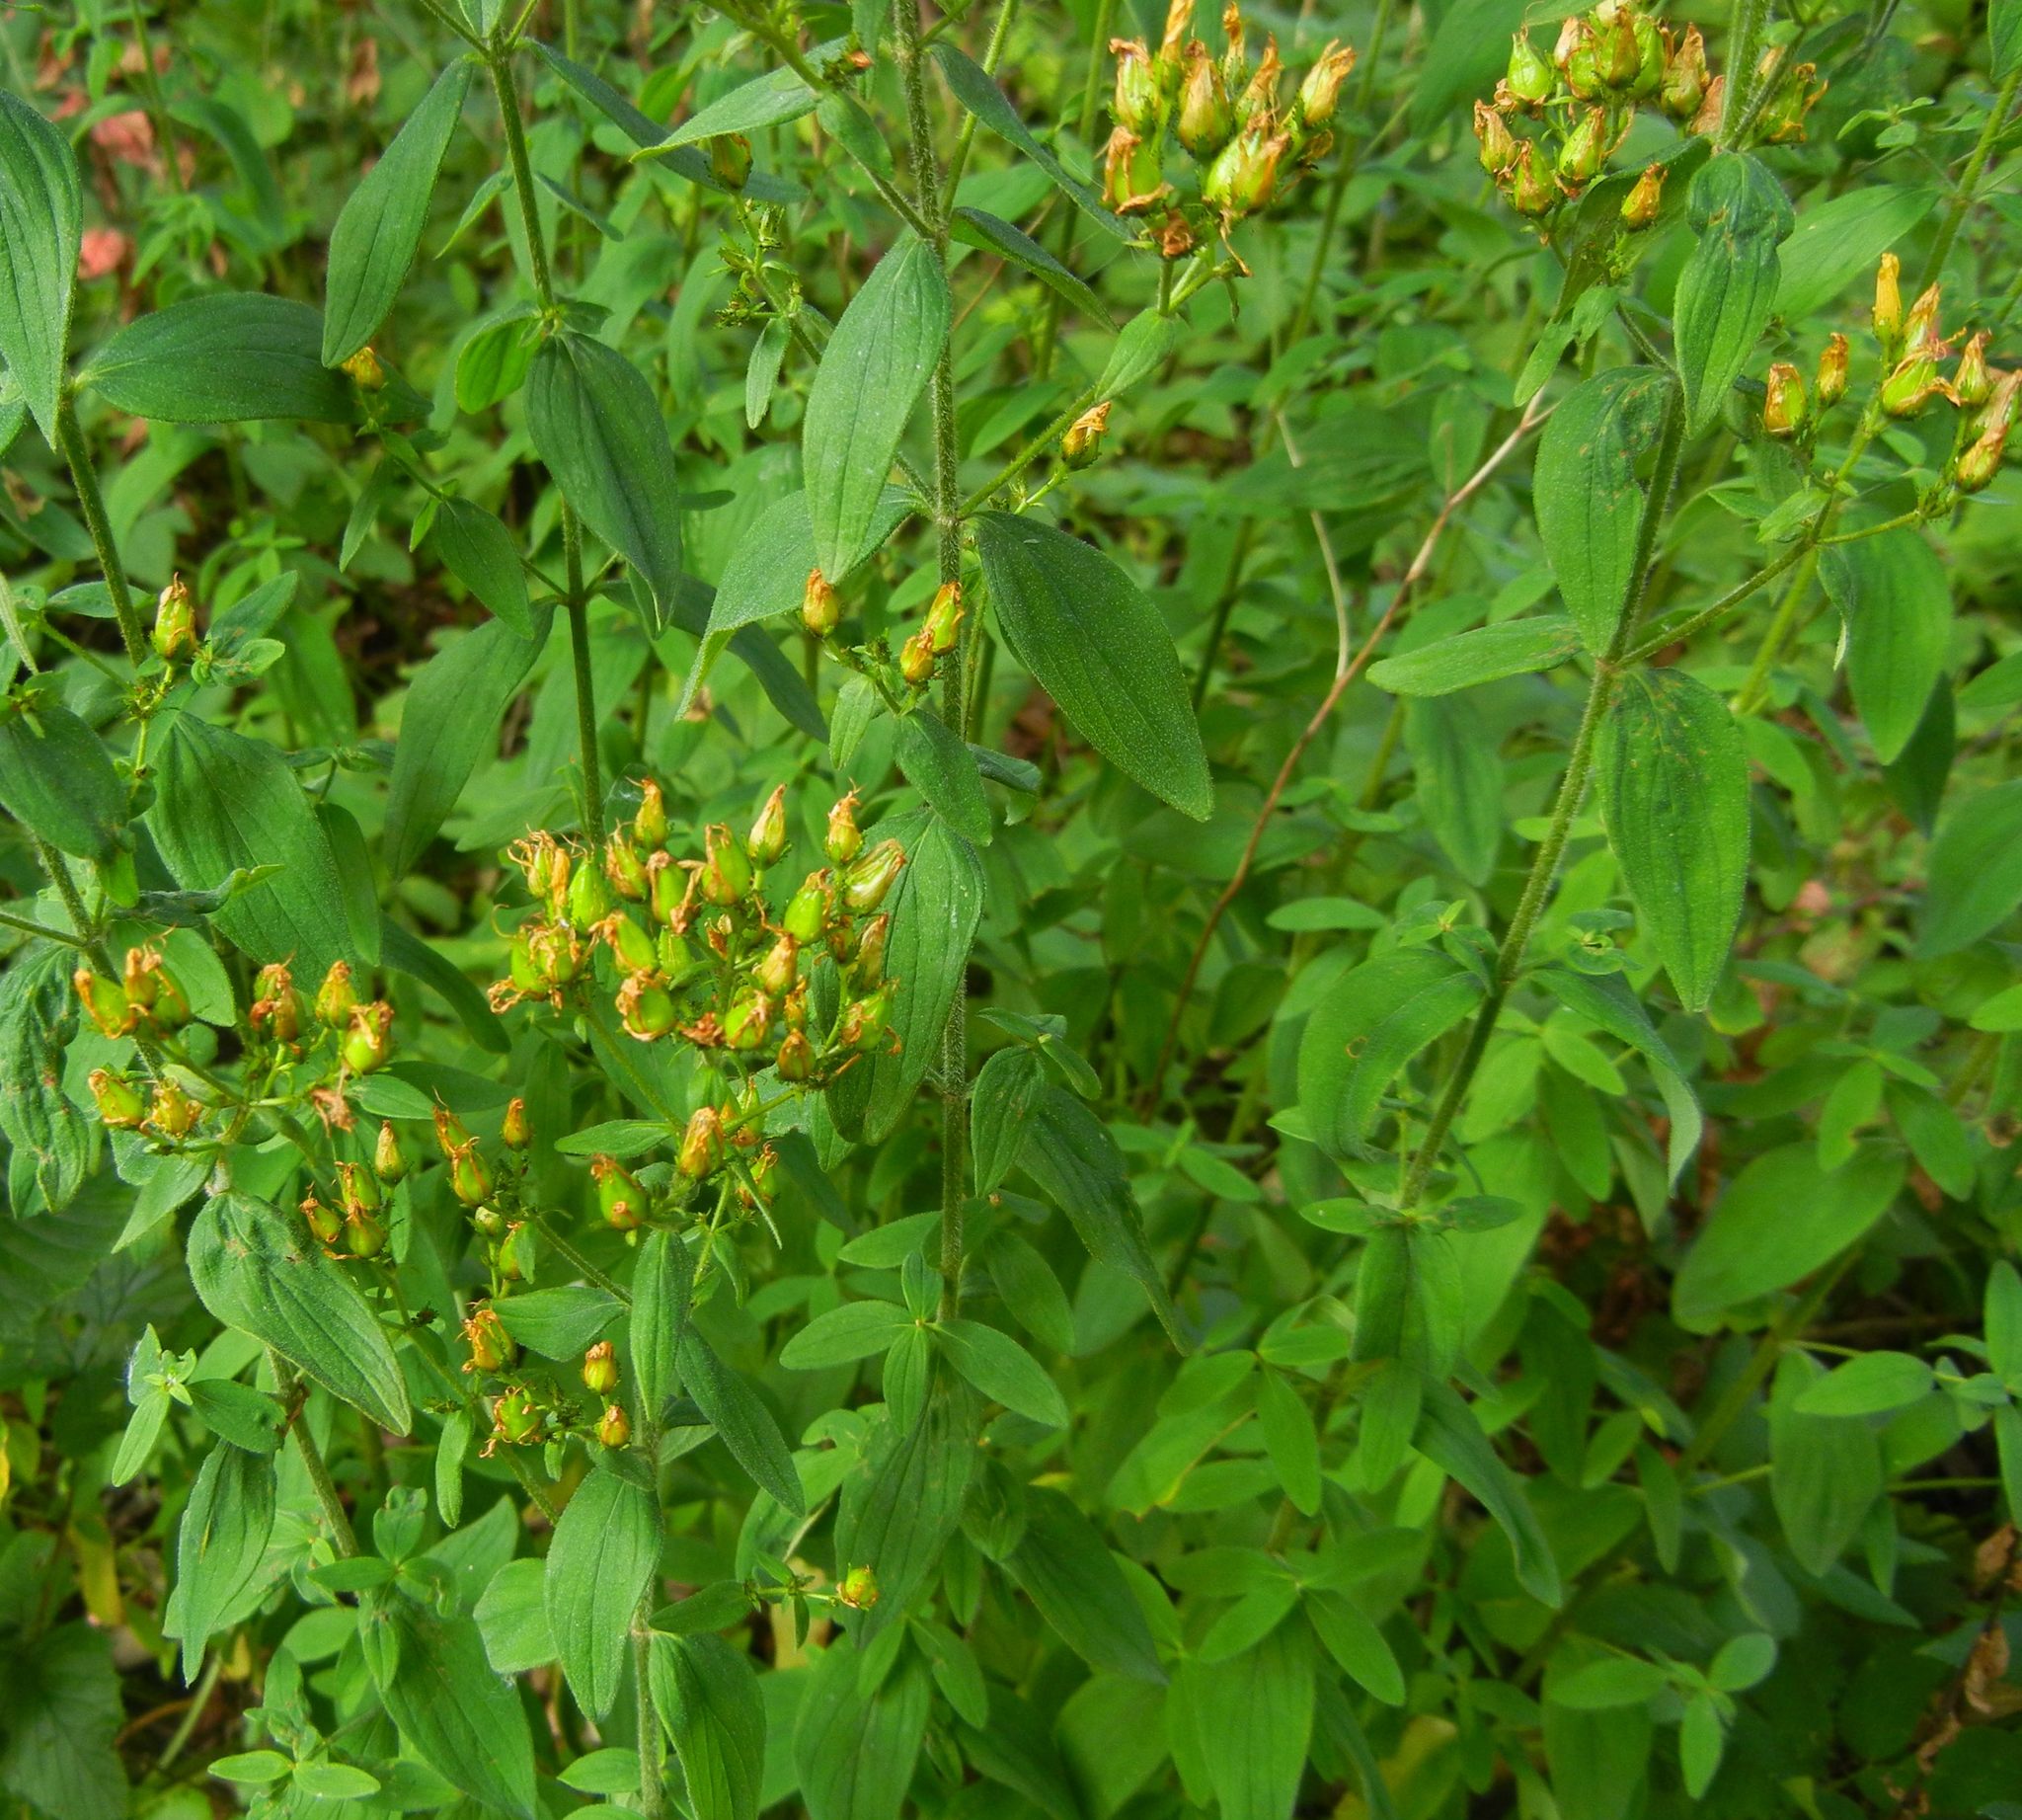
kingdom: Plantae
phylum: Tracheophyta
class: Magnoliopsida
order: Malpighiales
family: Hypericaceae
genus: Hypericum
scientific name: Hypericum hirsutum
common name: Hairy st. john's-wort
